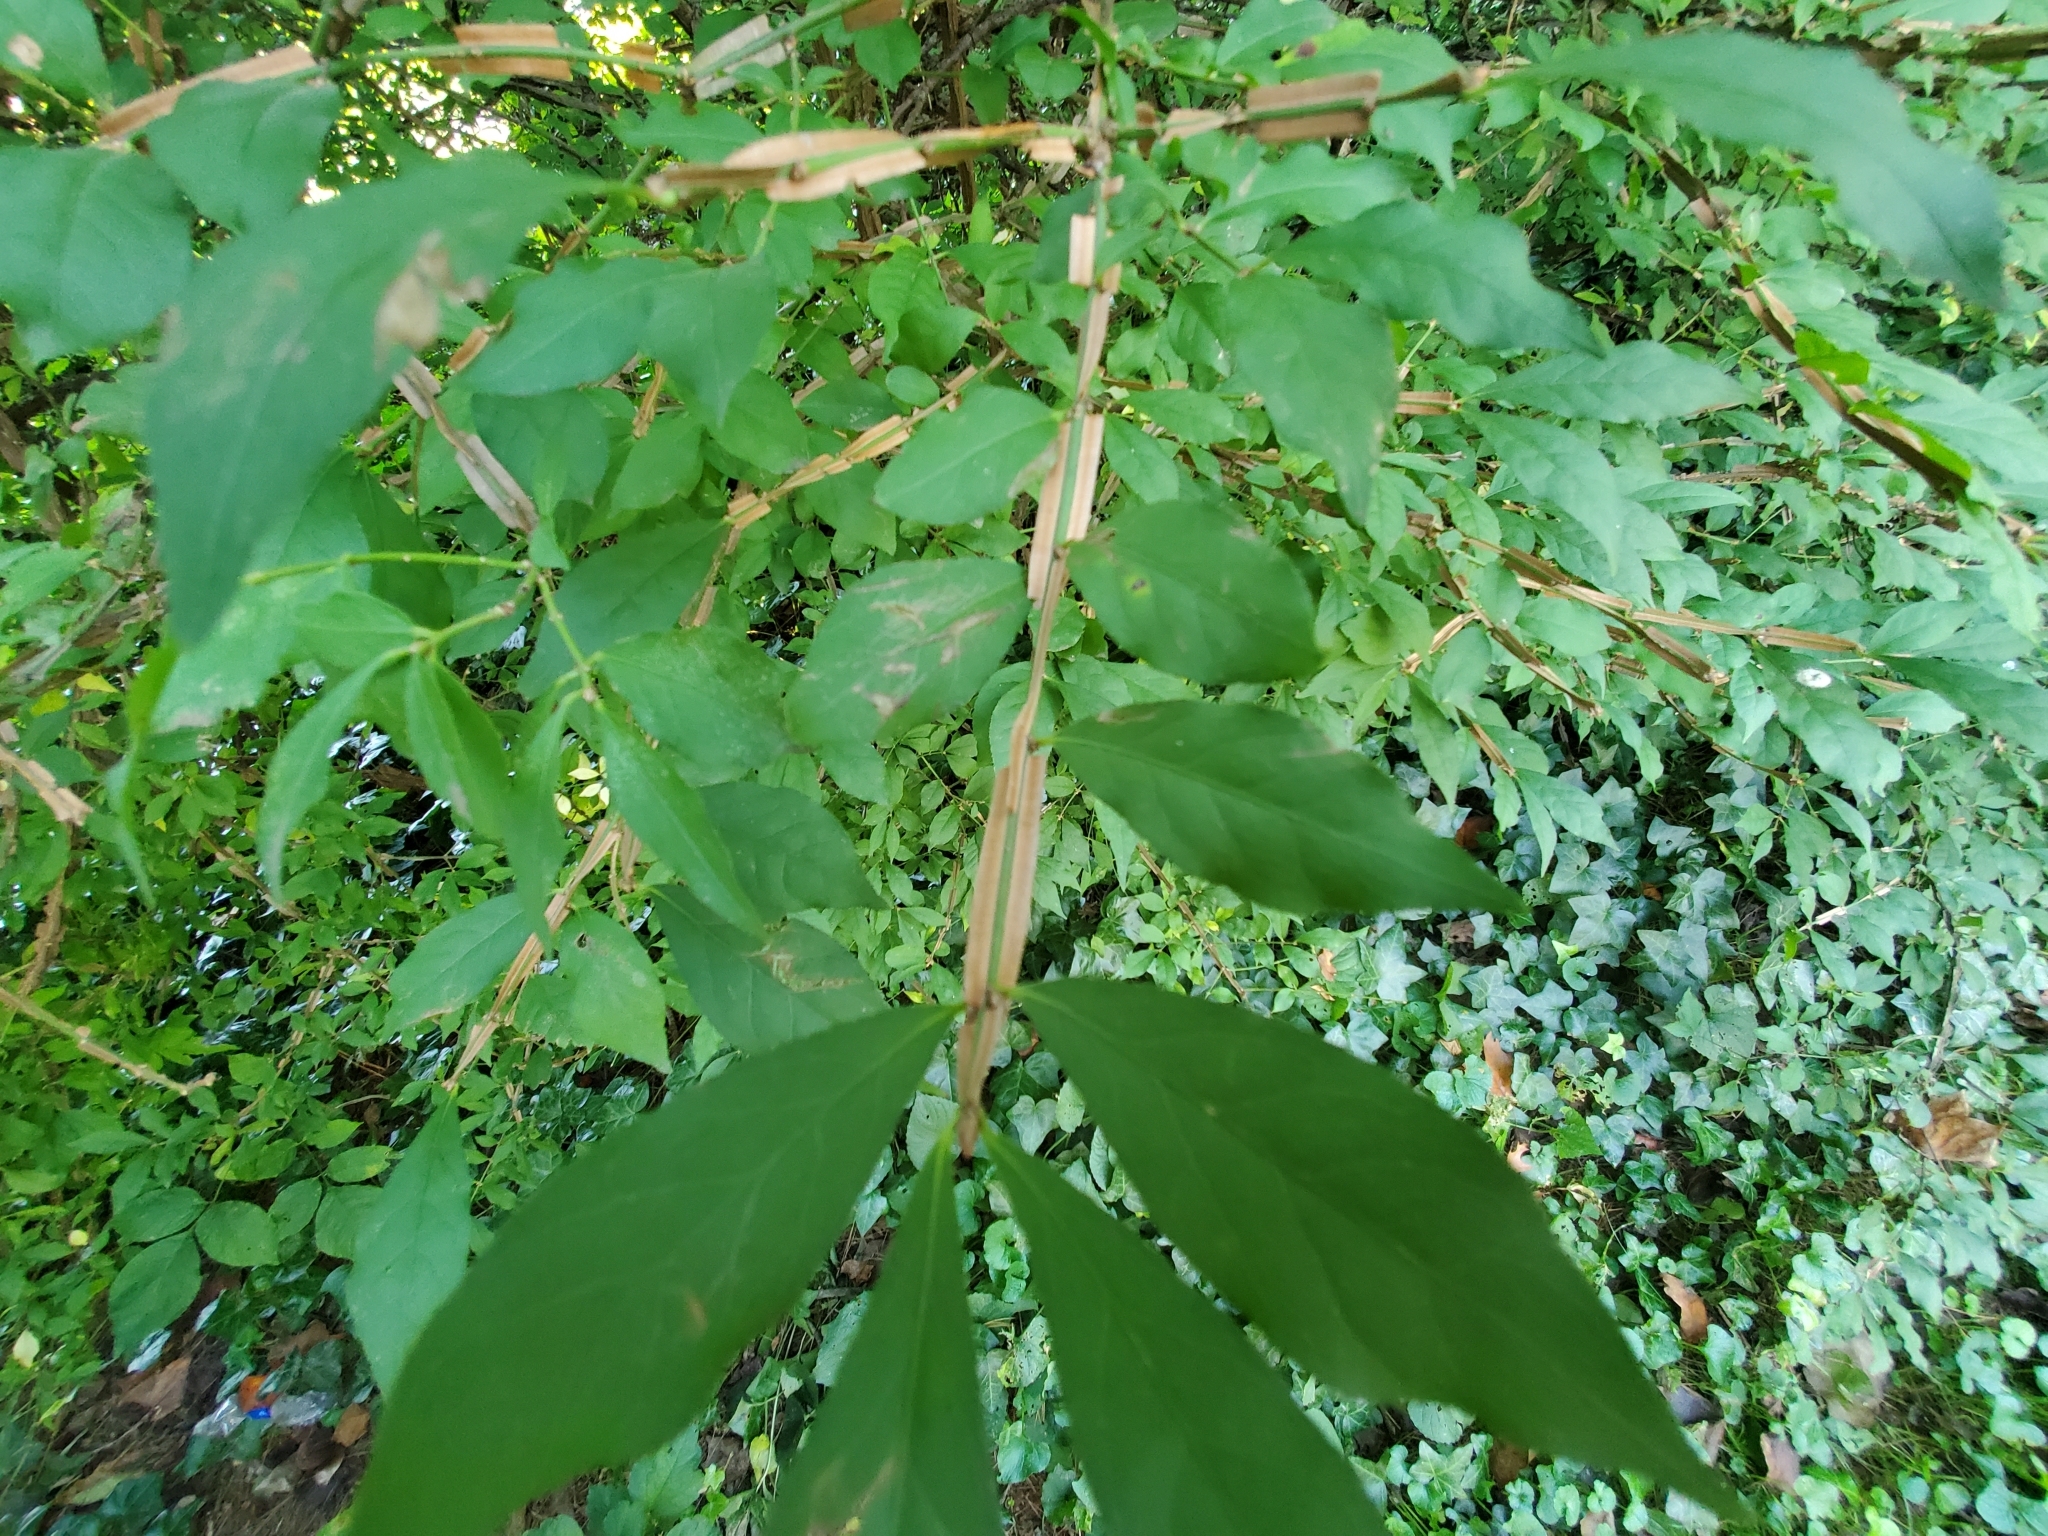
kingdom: Plantae
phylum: Tracheophyta
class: Magnoliopsida
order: Celastrales
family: Celastraceae
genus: Euonymus
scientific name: Euonymus alatus
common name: Winged euonymus
